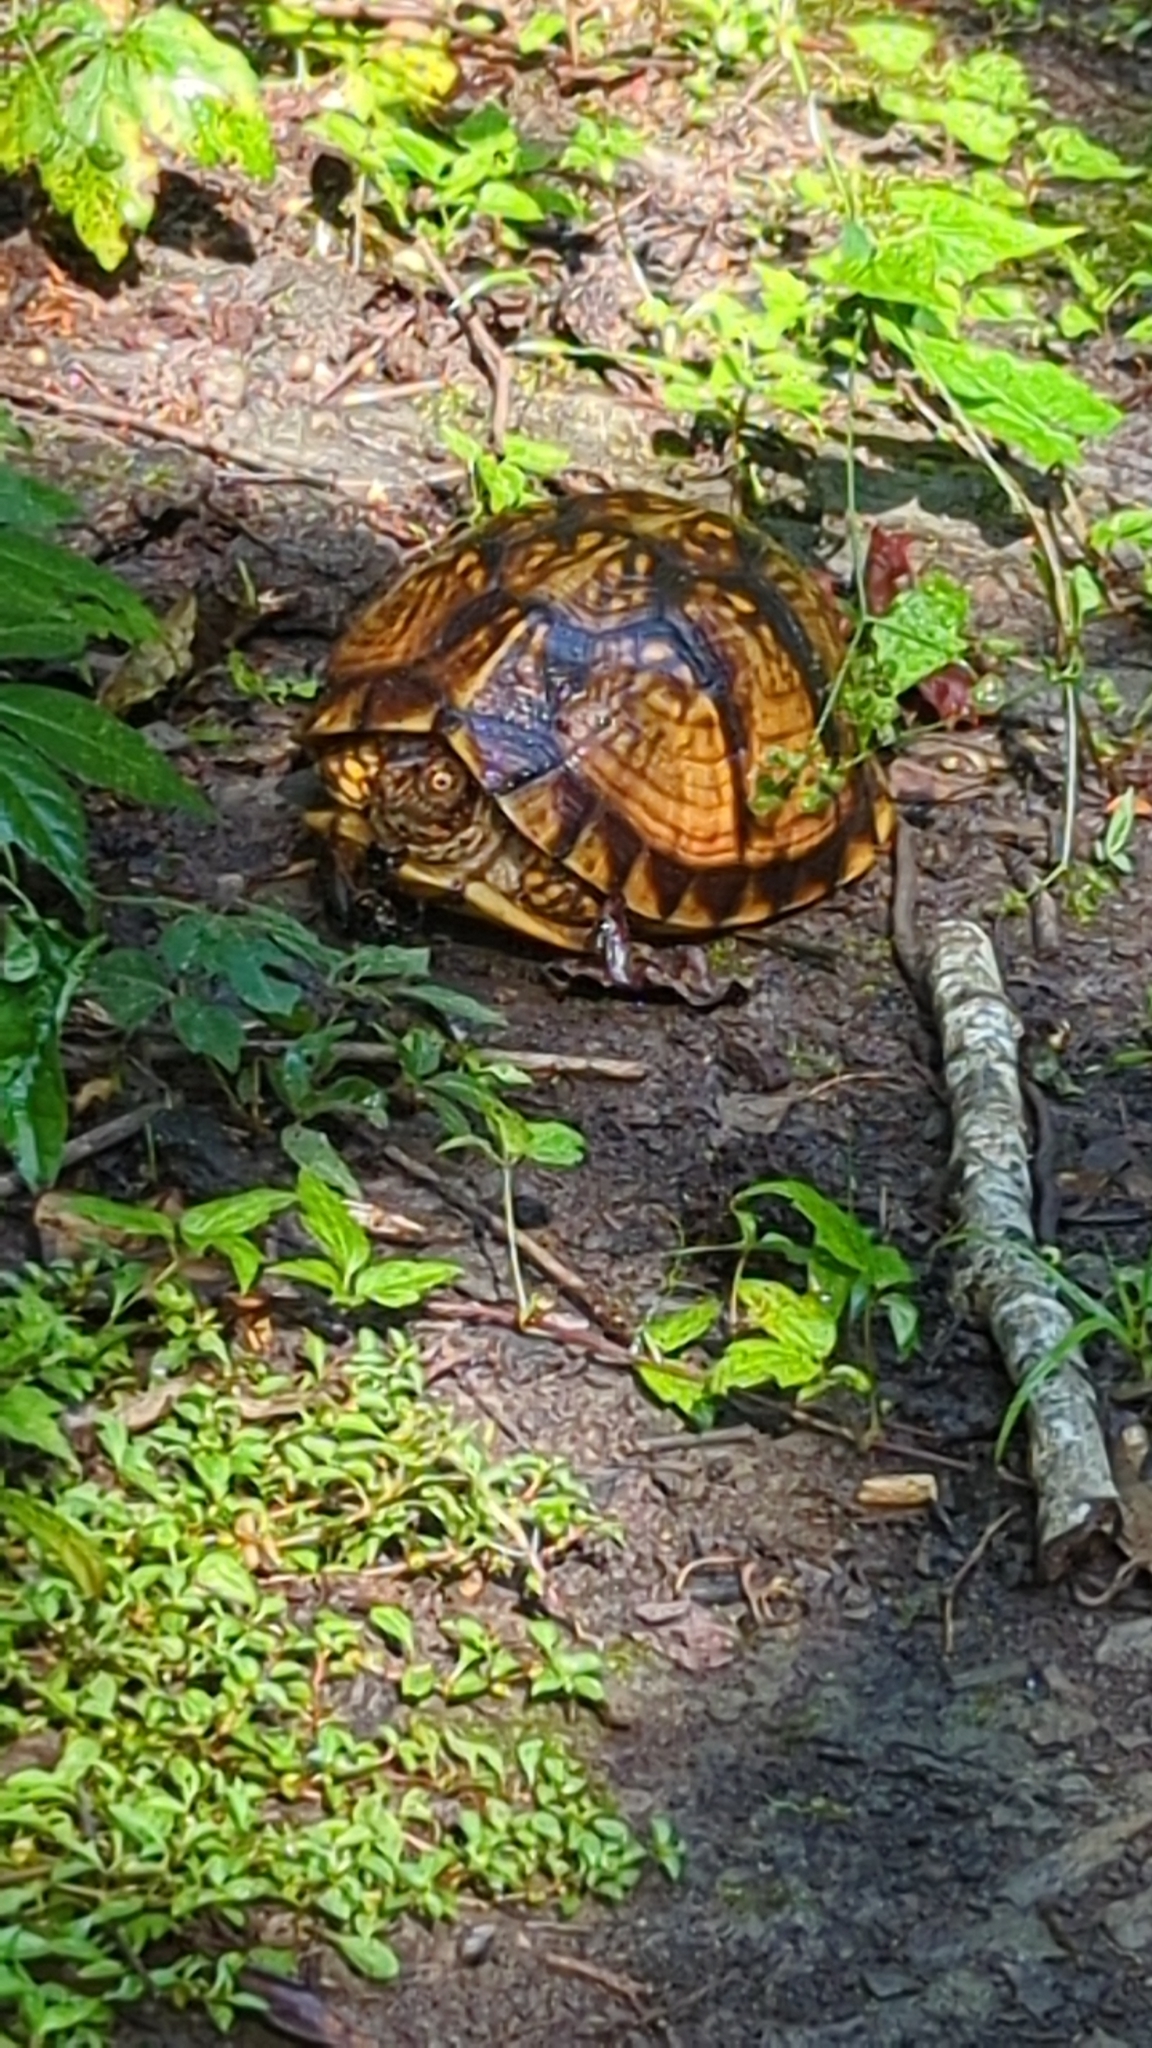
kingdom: Animalia
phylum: Chordata
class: Testudines
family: Emydidae
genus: Terrapene
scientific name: Terrapene carolina
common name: Common box turtle
